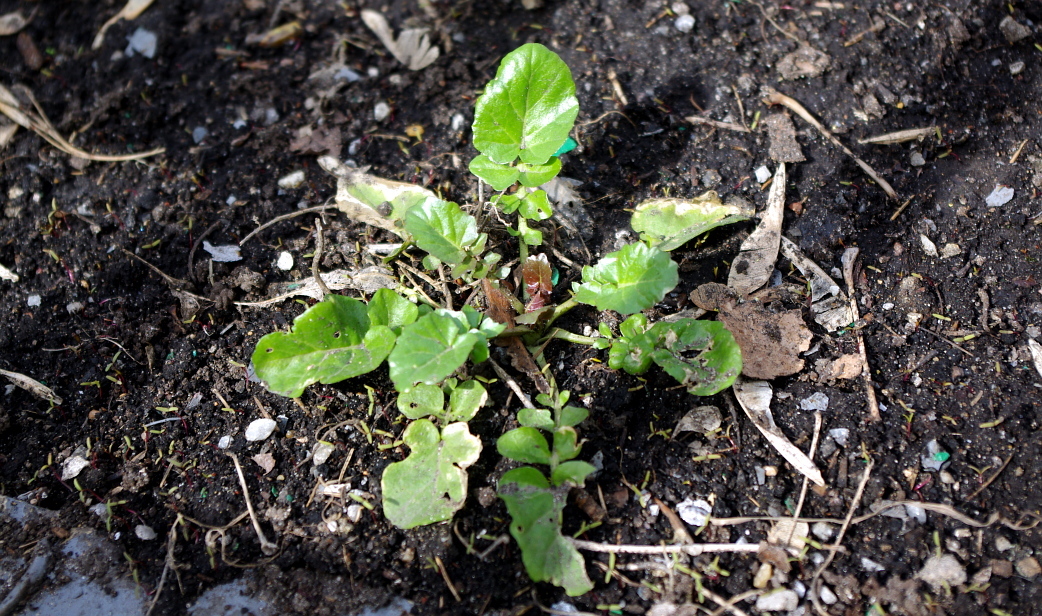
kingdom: Plantae
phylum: Tracheophyta
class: Magnoliopsida
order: Brassicales
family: Brassicaceae
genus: Barbarea
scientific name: Barbarea vulgaris
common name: Cressy-greens
